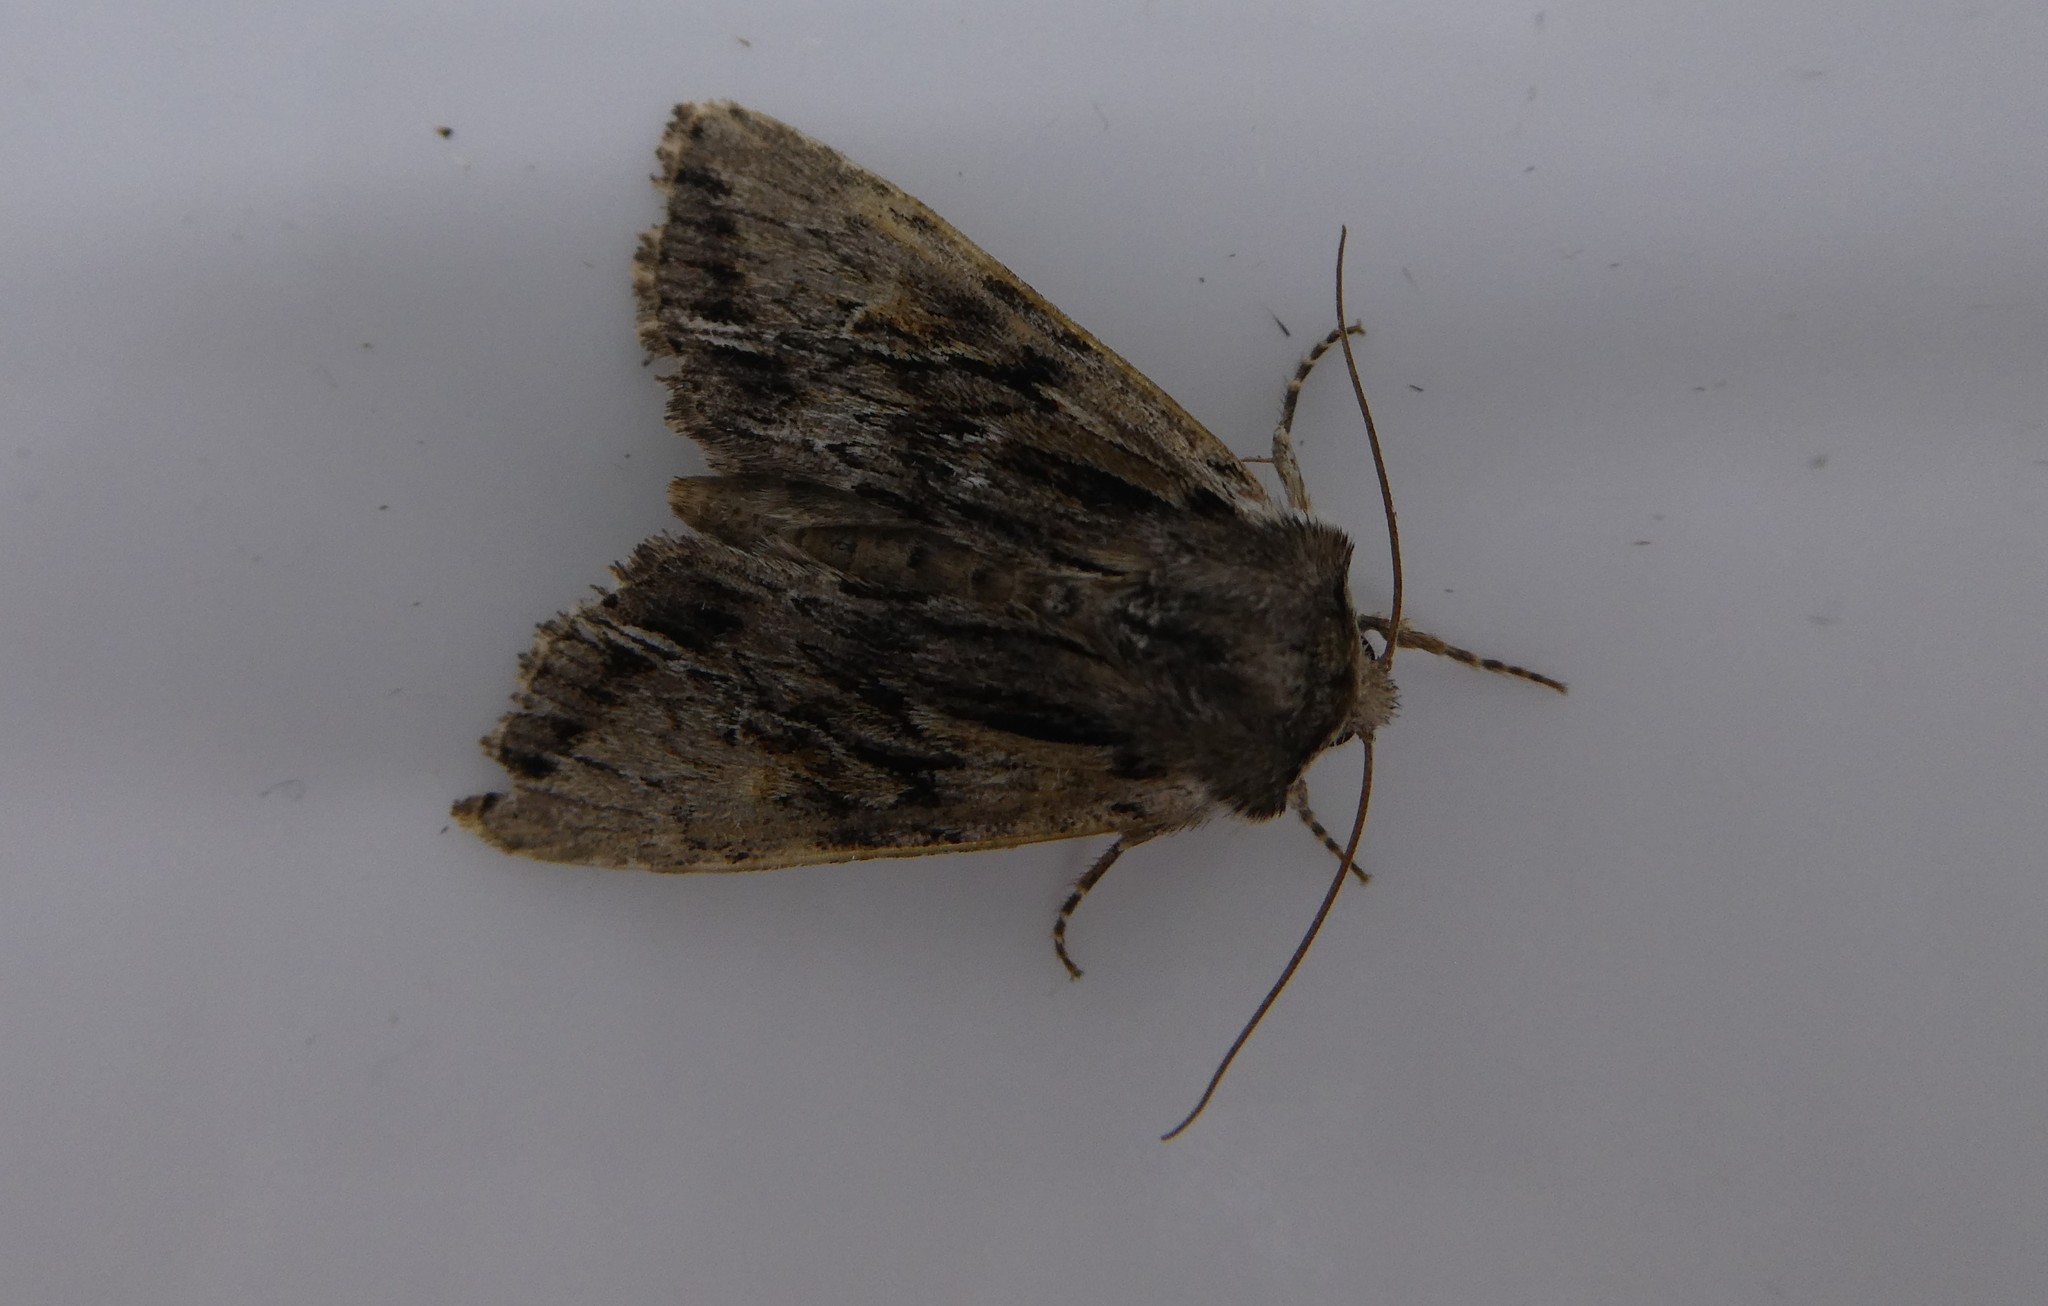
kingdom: Animalia
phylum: Arthropoda
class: Insecta
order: Lepidoptera
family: Noctuidae
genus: Achatia
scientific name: Achatia evicta
